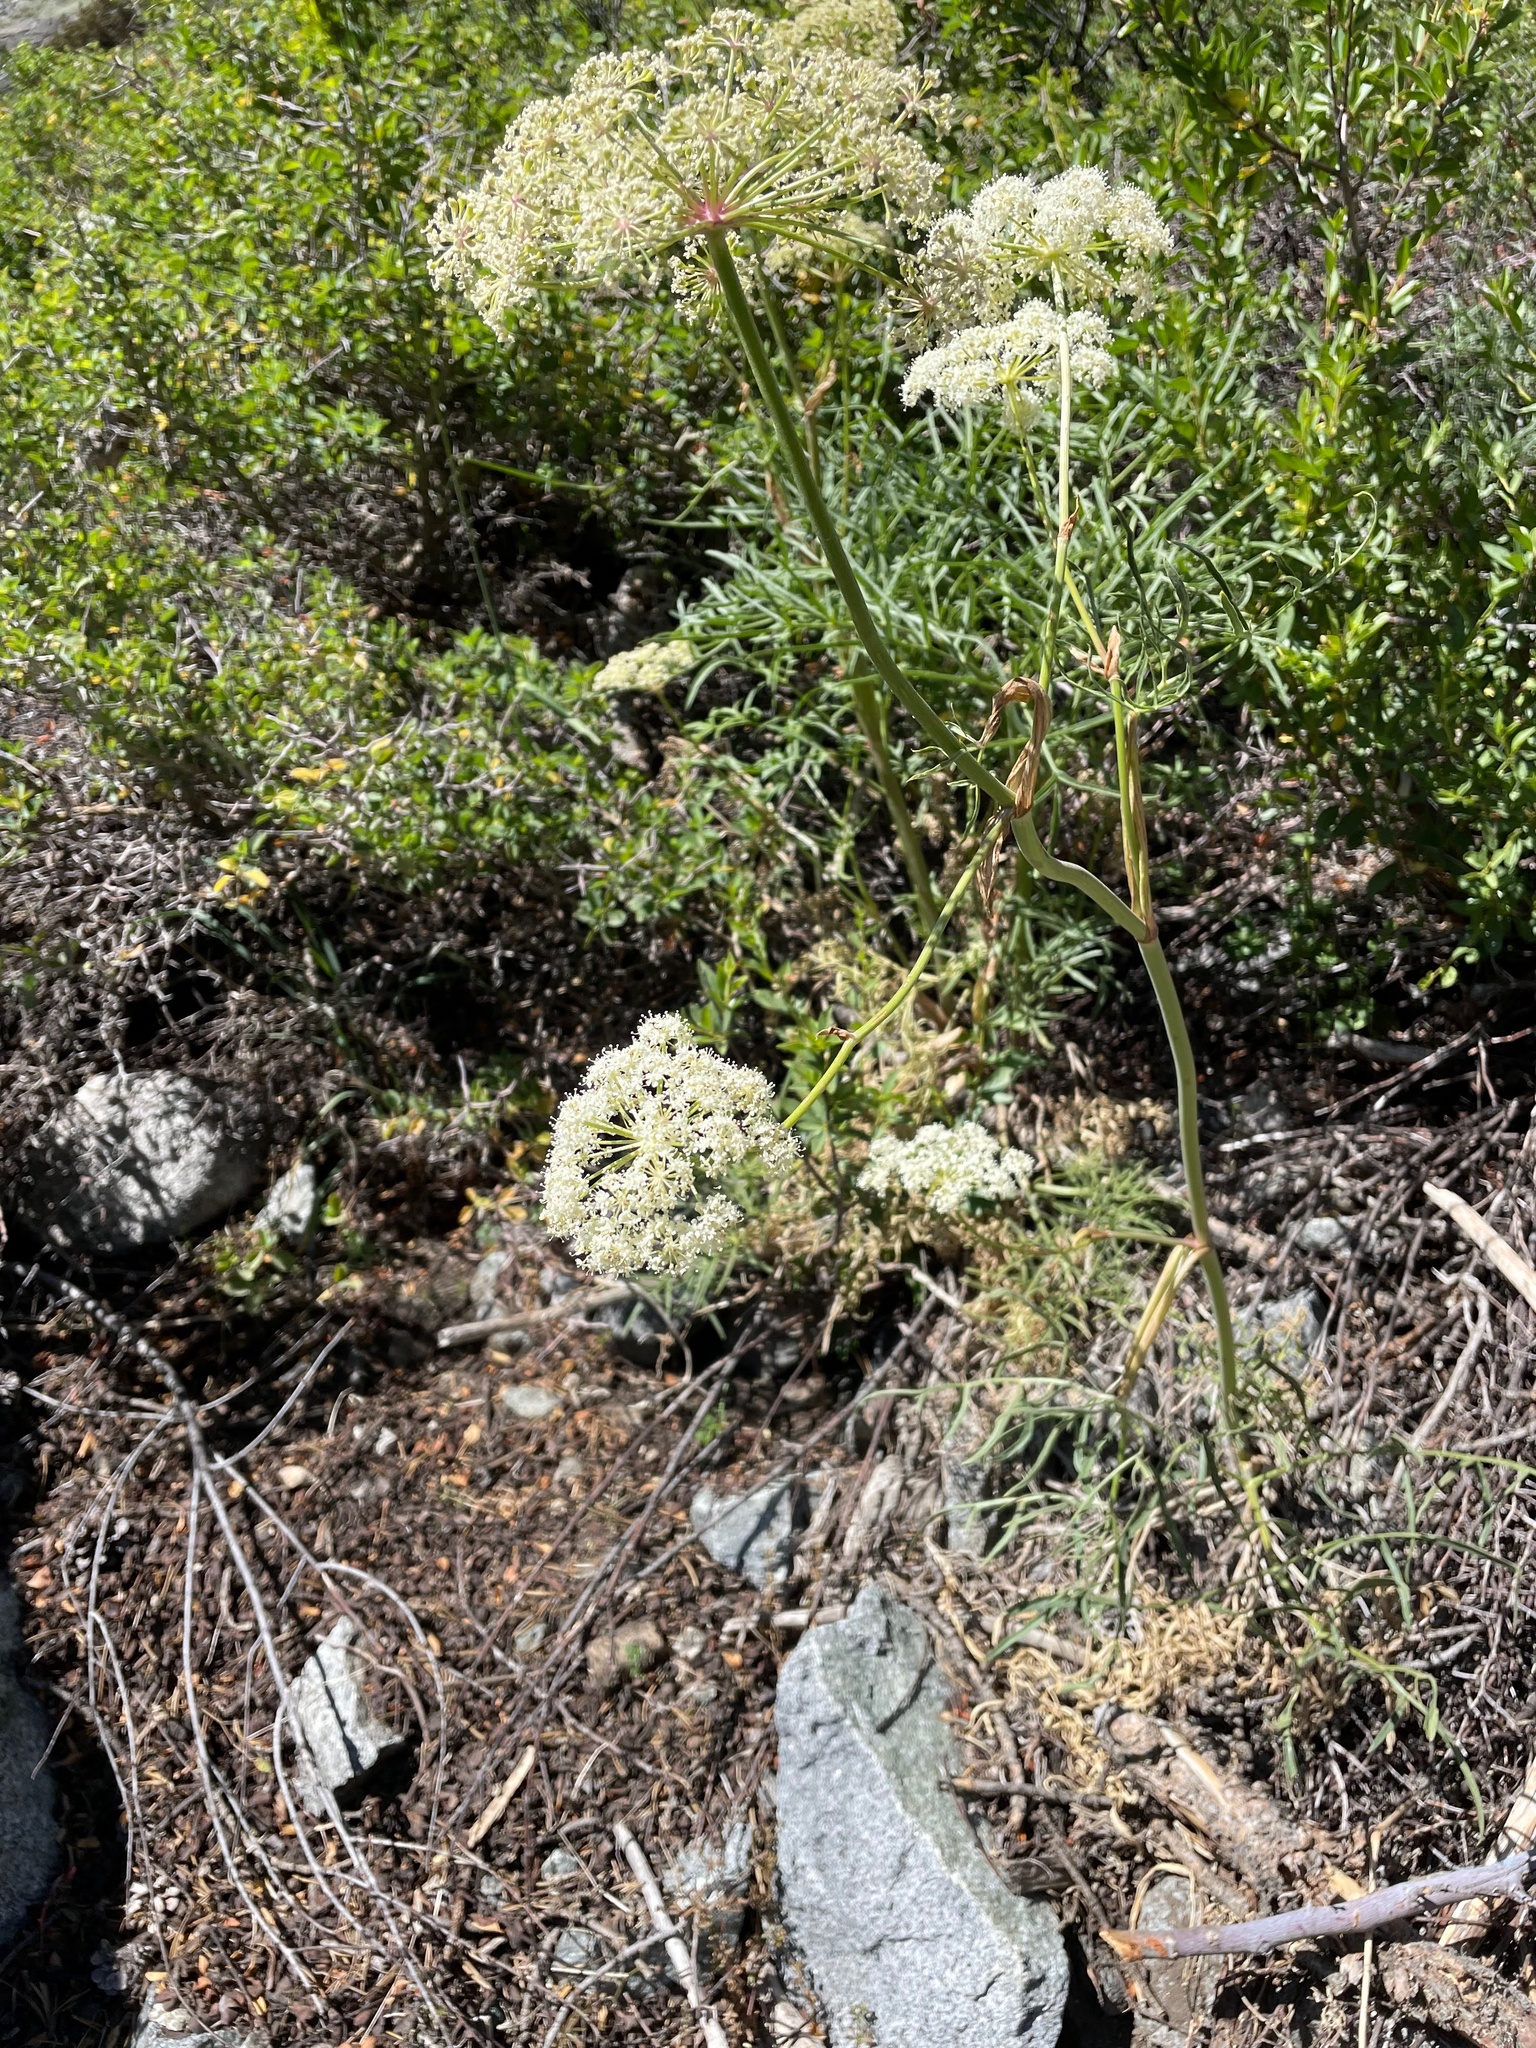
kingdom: Plantae
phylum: Tracheophyta
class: Magnoliopsida
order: Apiales
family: Apiaceae
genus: Angelica
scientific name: Angelica lineariloba
